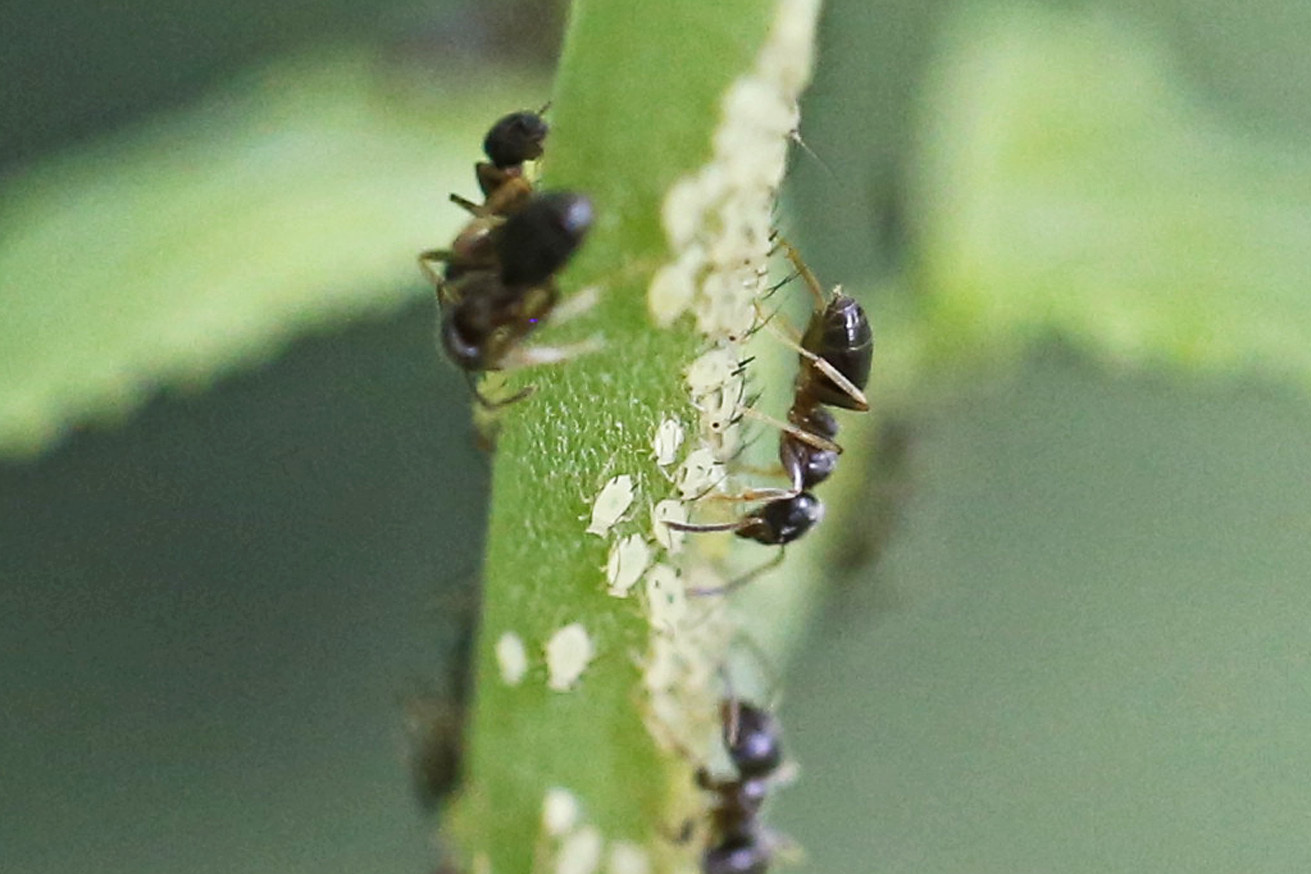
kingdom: Animalia
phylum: Arthropoda
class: Insecta
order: Hemiptera
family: Aphididae
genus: Aphis
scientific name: Aphis coreopsidis
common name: Aphid
